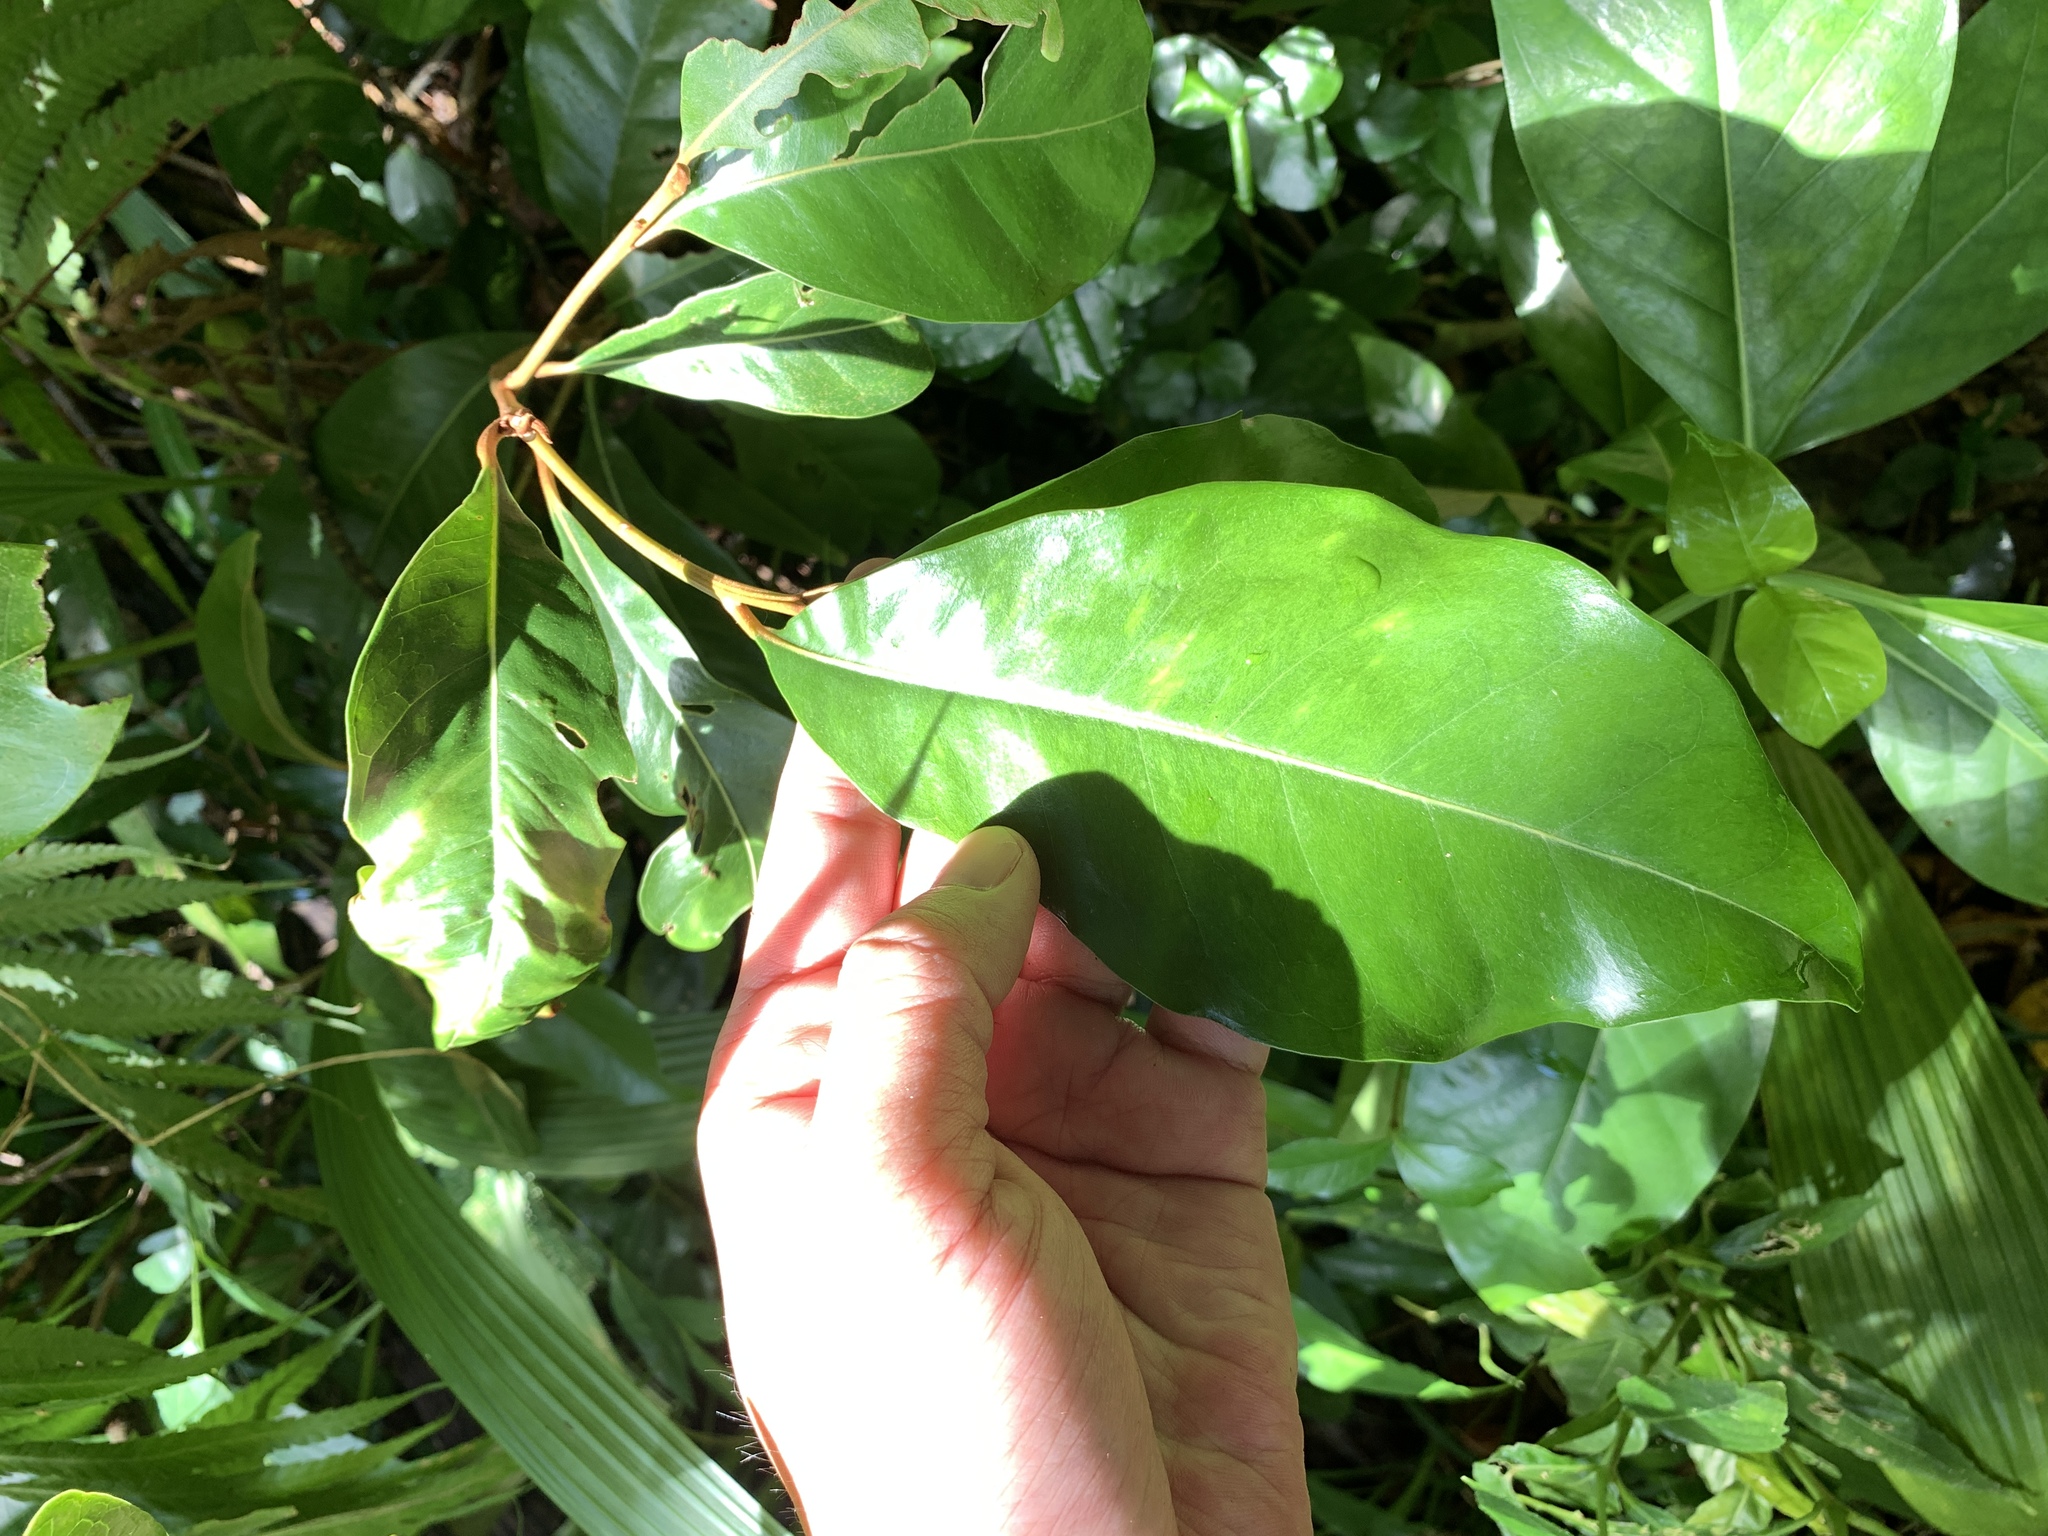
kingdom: Plantae
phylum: Tracheophyta
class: Magnoliopsida
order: Ericales
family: Sapotaceae
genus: Planchonella
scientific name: Planchonella obovata
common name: Black-ash
